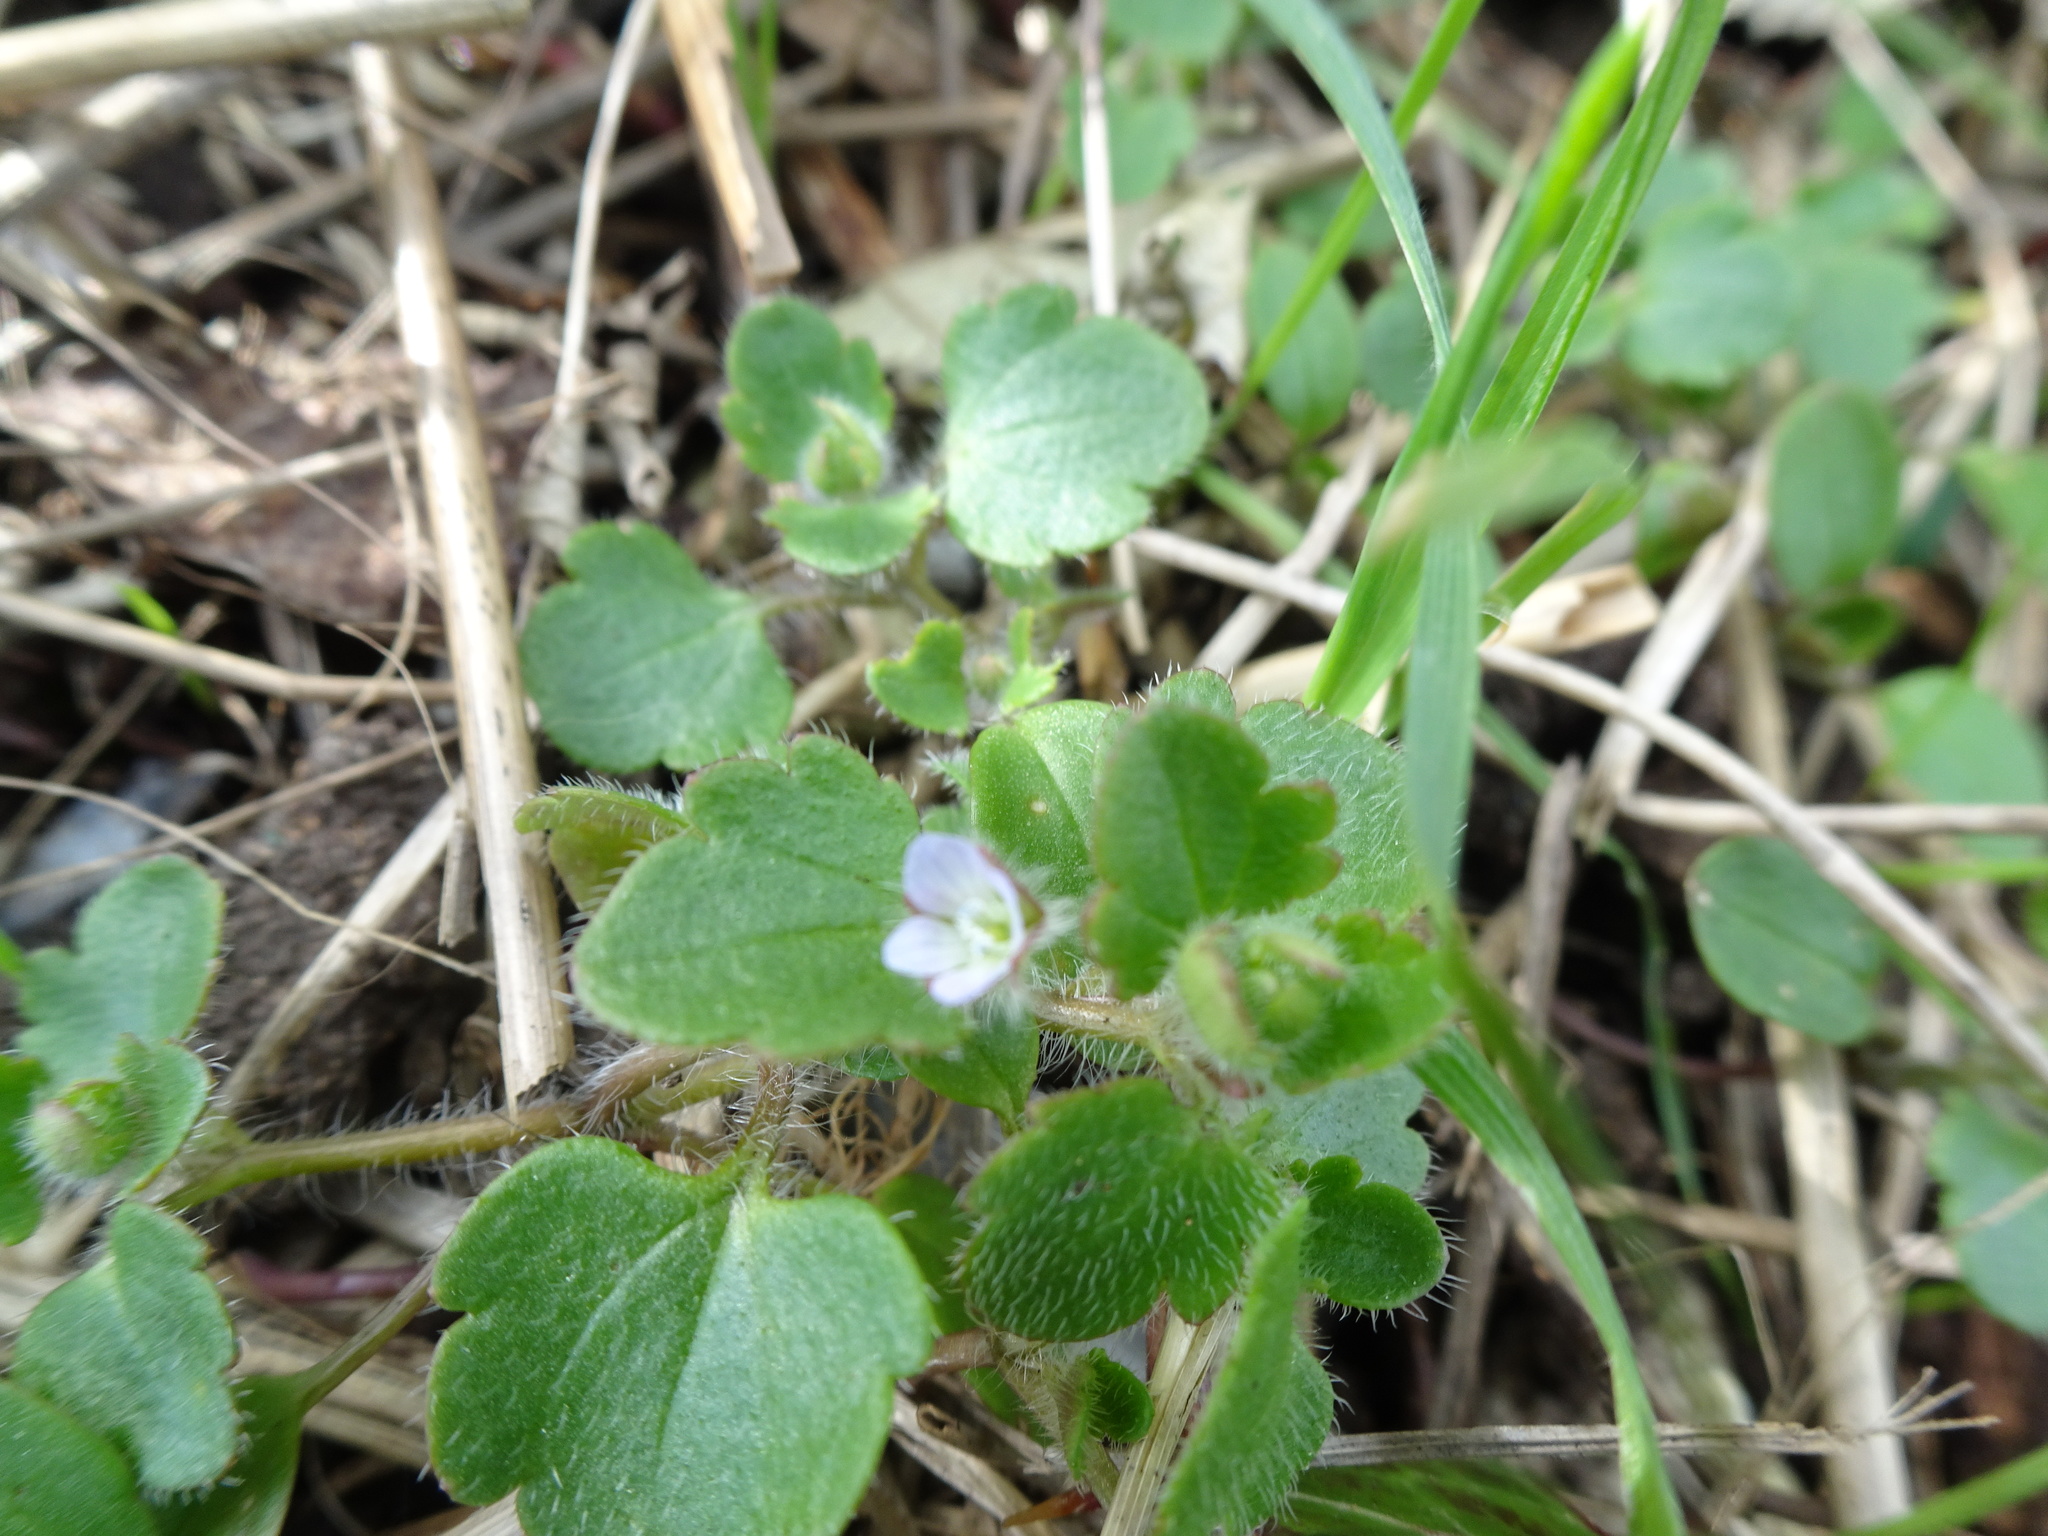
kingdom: Plantae
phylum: Tracheophyta
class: Magnoliopsida
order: Lamiales
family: Plantaginaceae
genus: Veronica
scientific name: Veronica sublobata
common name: False ivy-leaved speedwell
